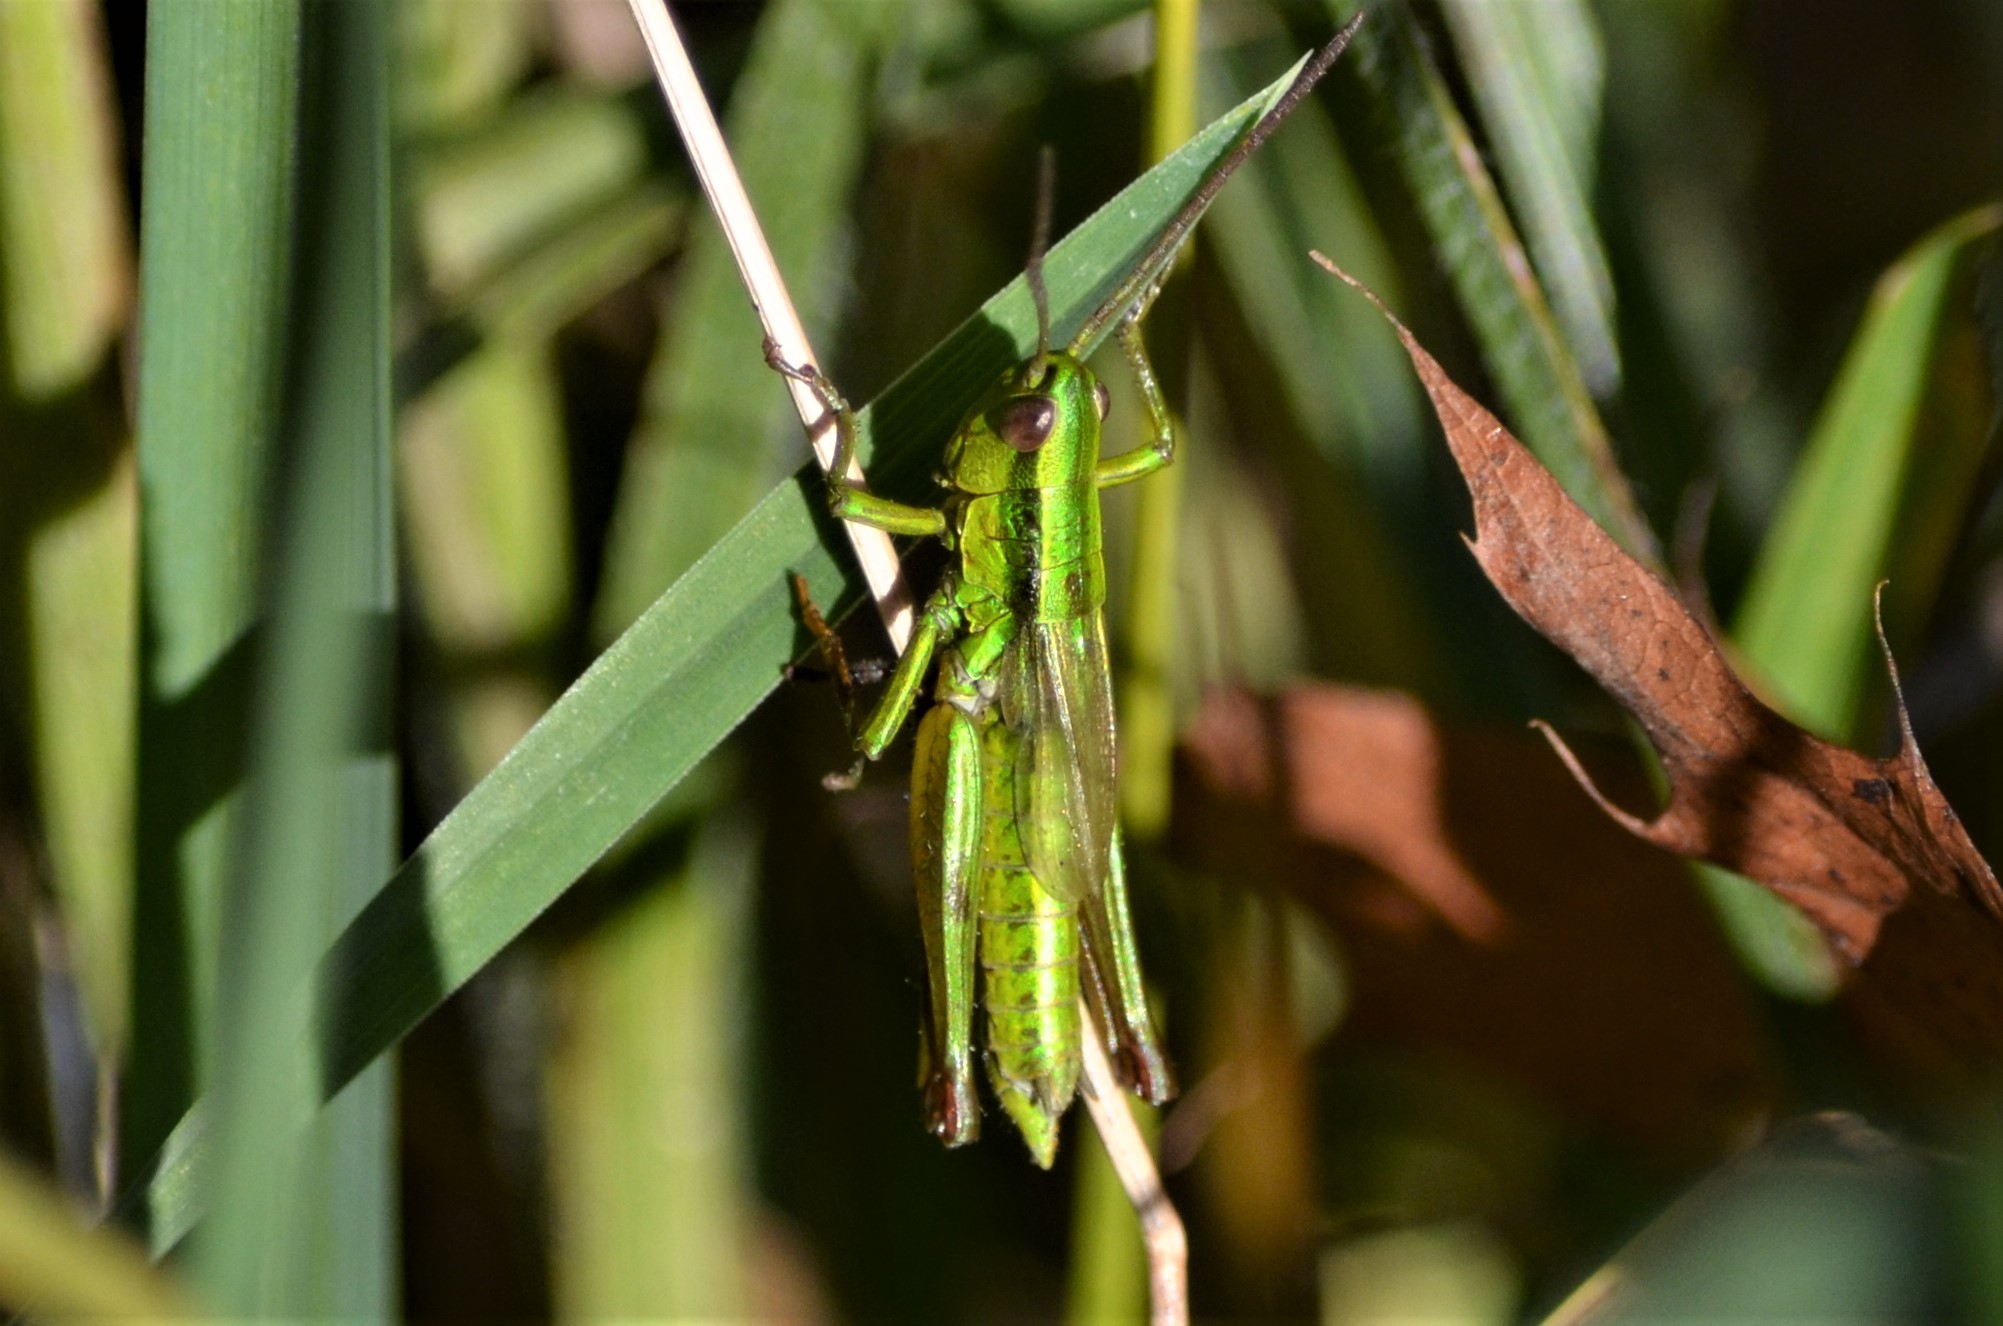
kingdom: Animalia
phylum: Arthropoda
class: Insecta
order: Orthoptera
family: Acrididae
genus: Euthystira
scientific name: Euthystira brachyptera
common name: Small gold grasshopper
